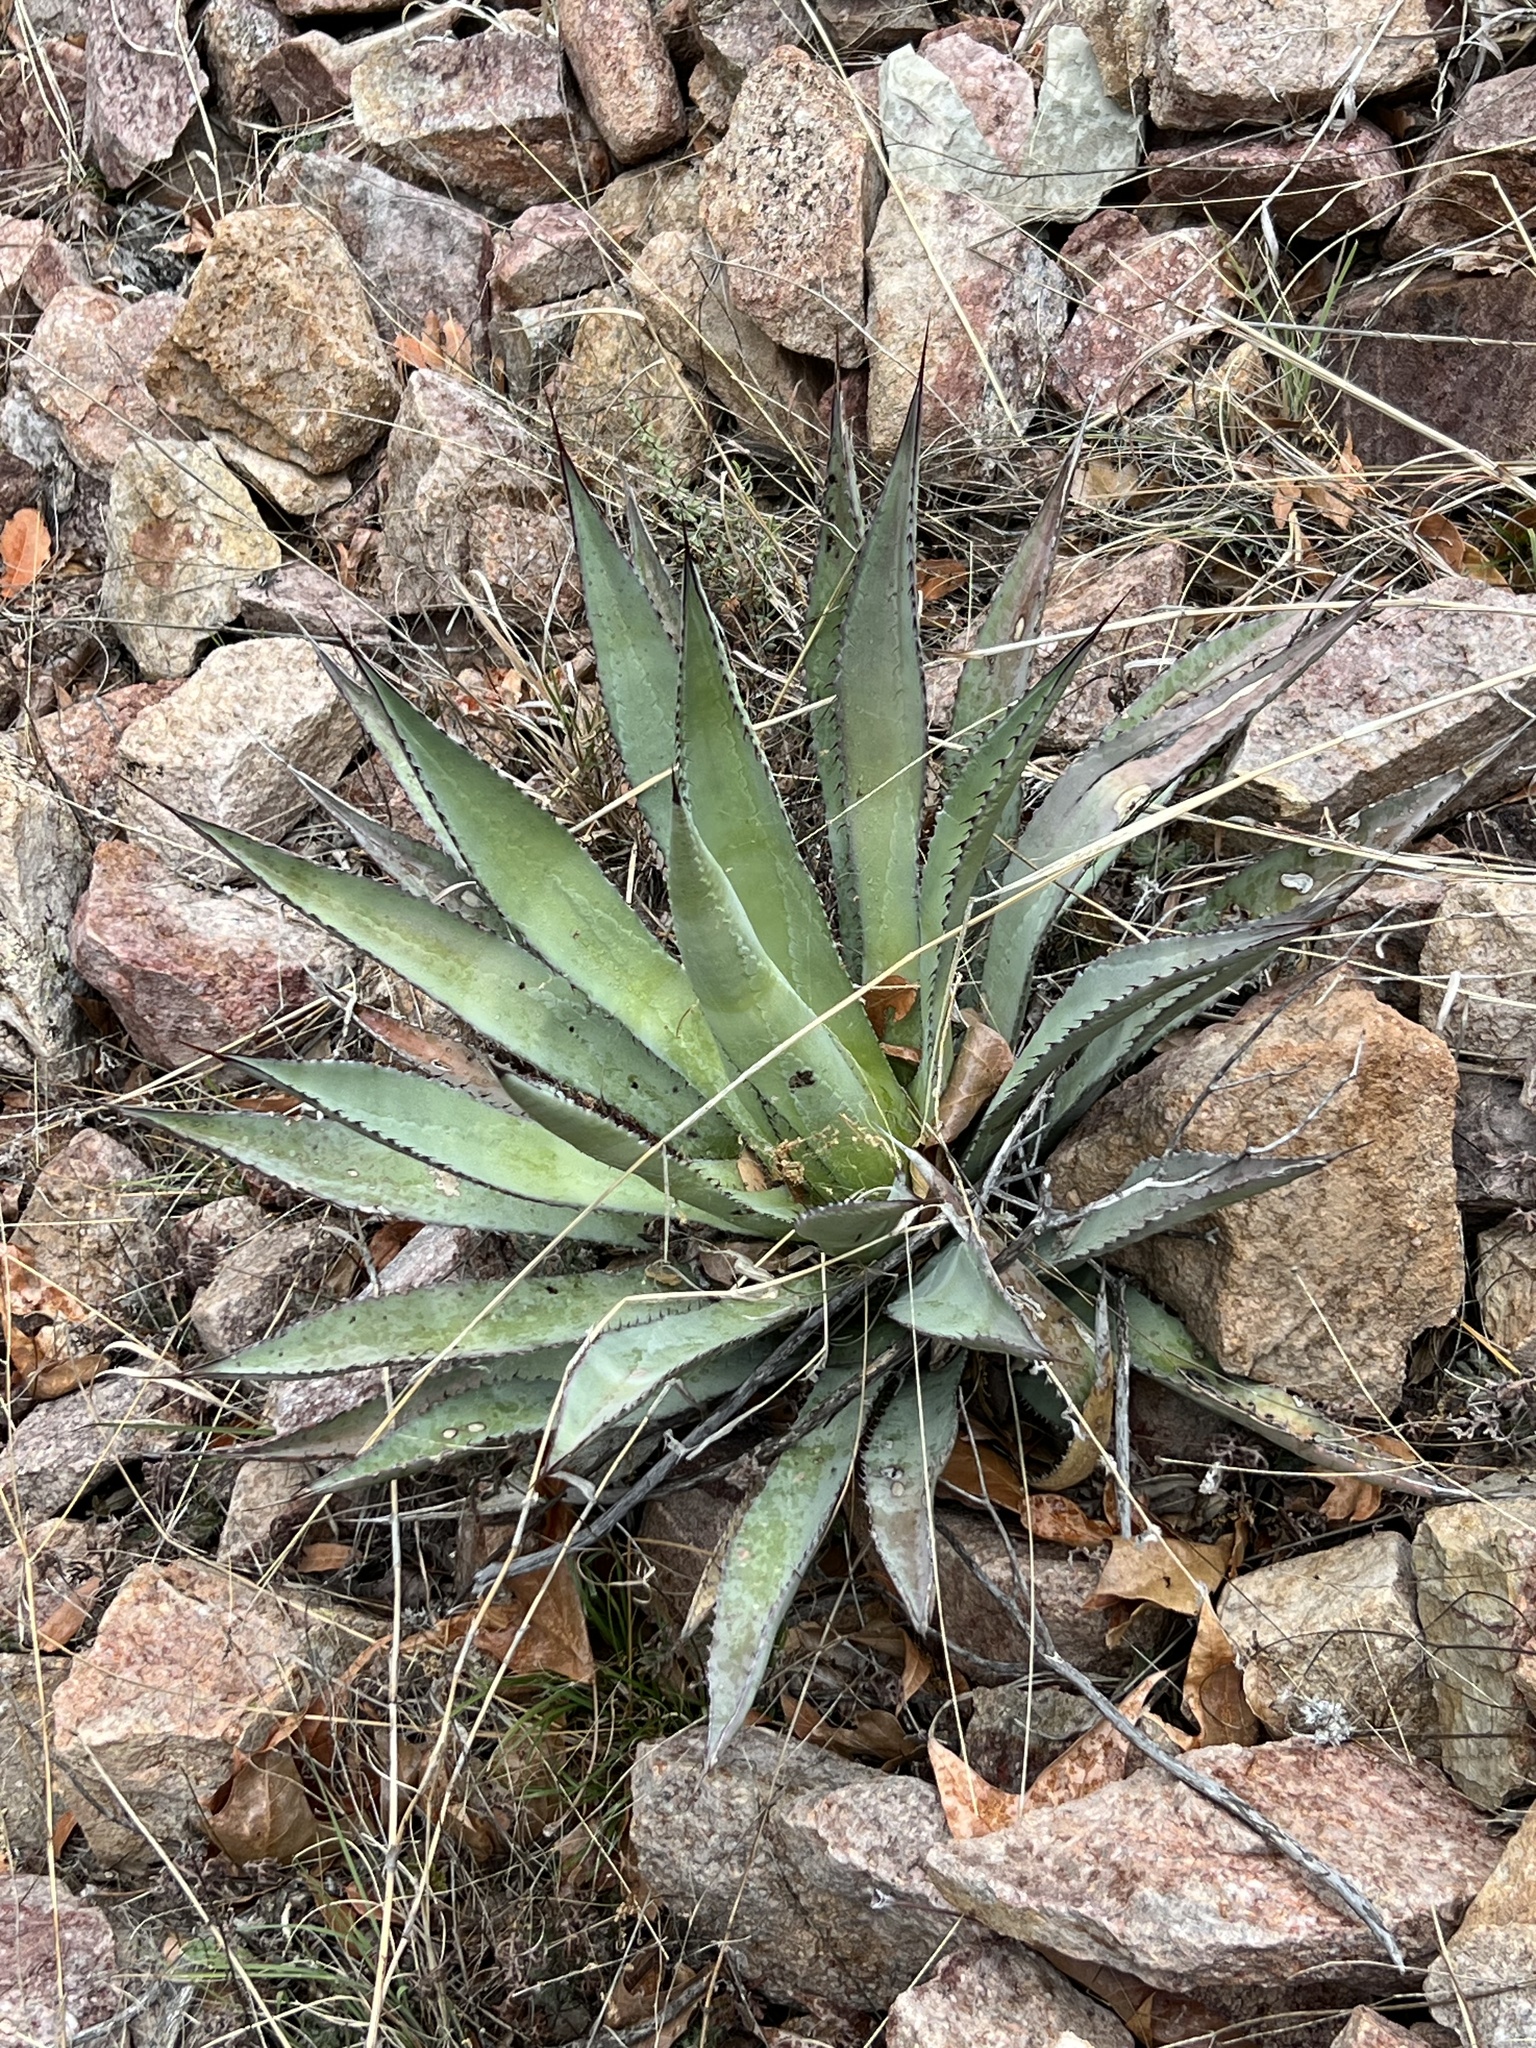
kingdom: Plantae
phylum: Tracheophyta
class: Liliopsida
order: Asparagales
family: Asparagaceae
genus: Agave
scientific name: Agave palmeri
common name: Palmer agave
